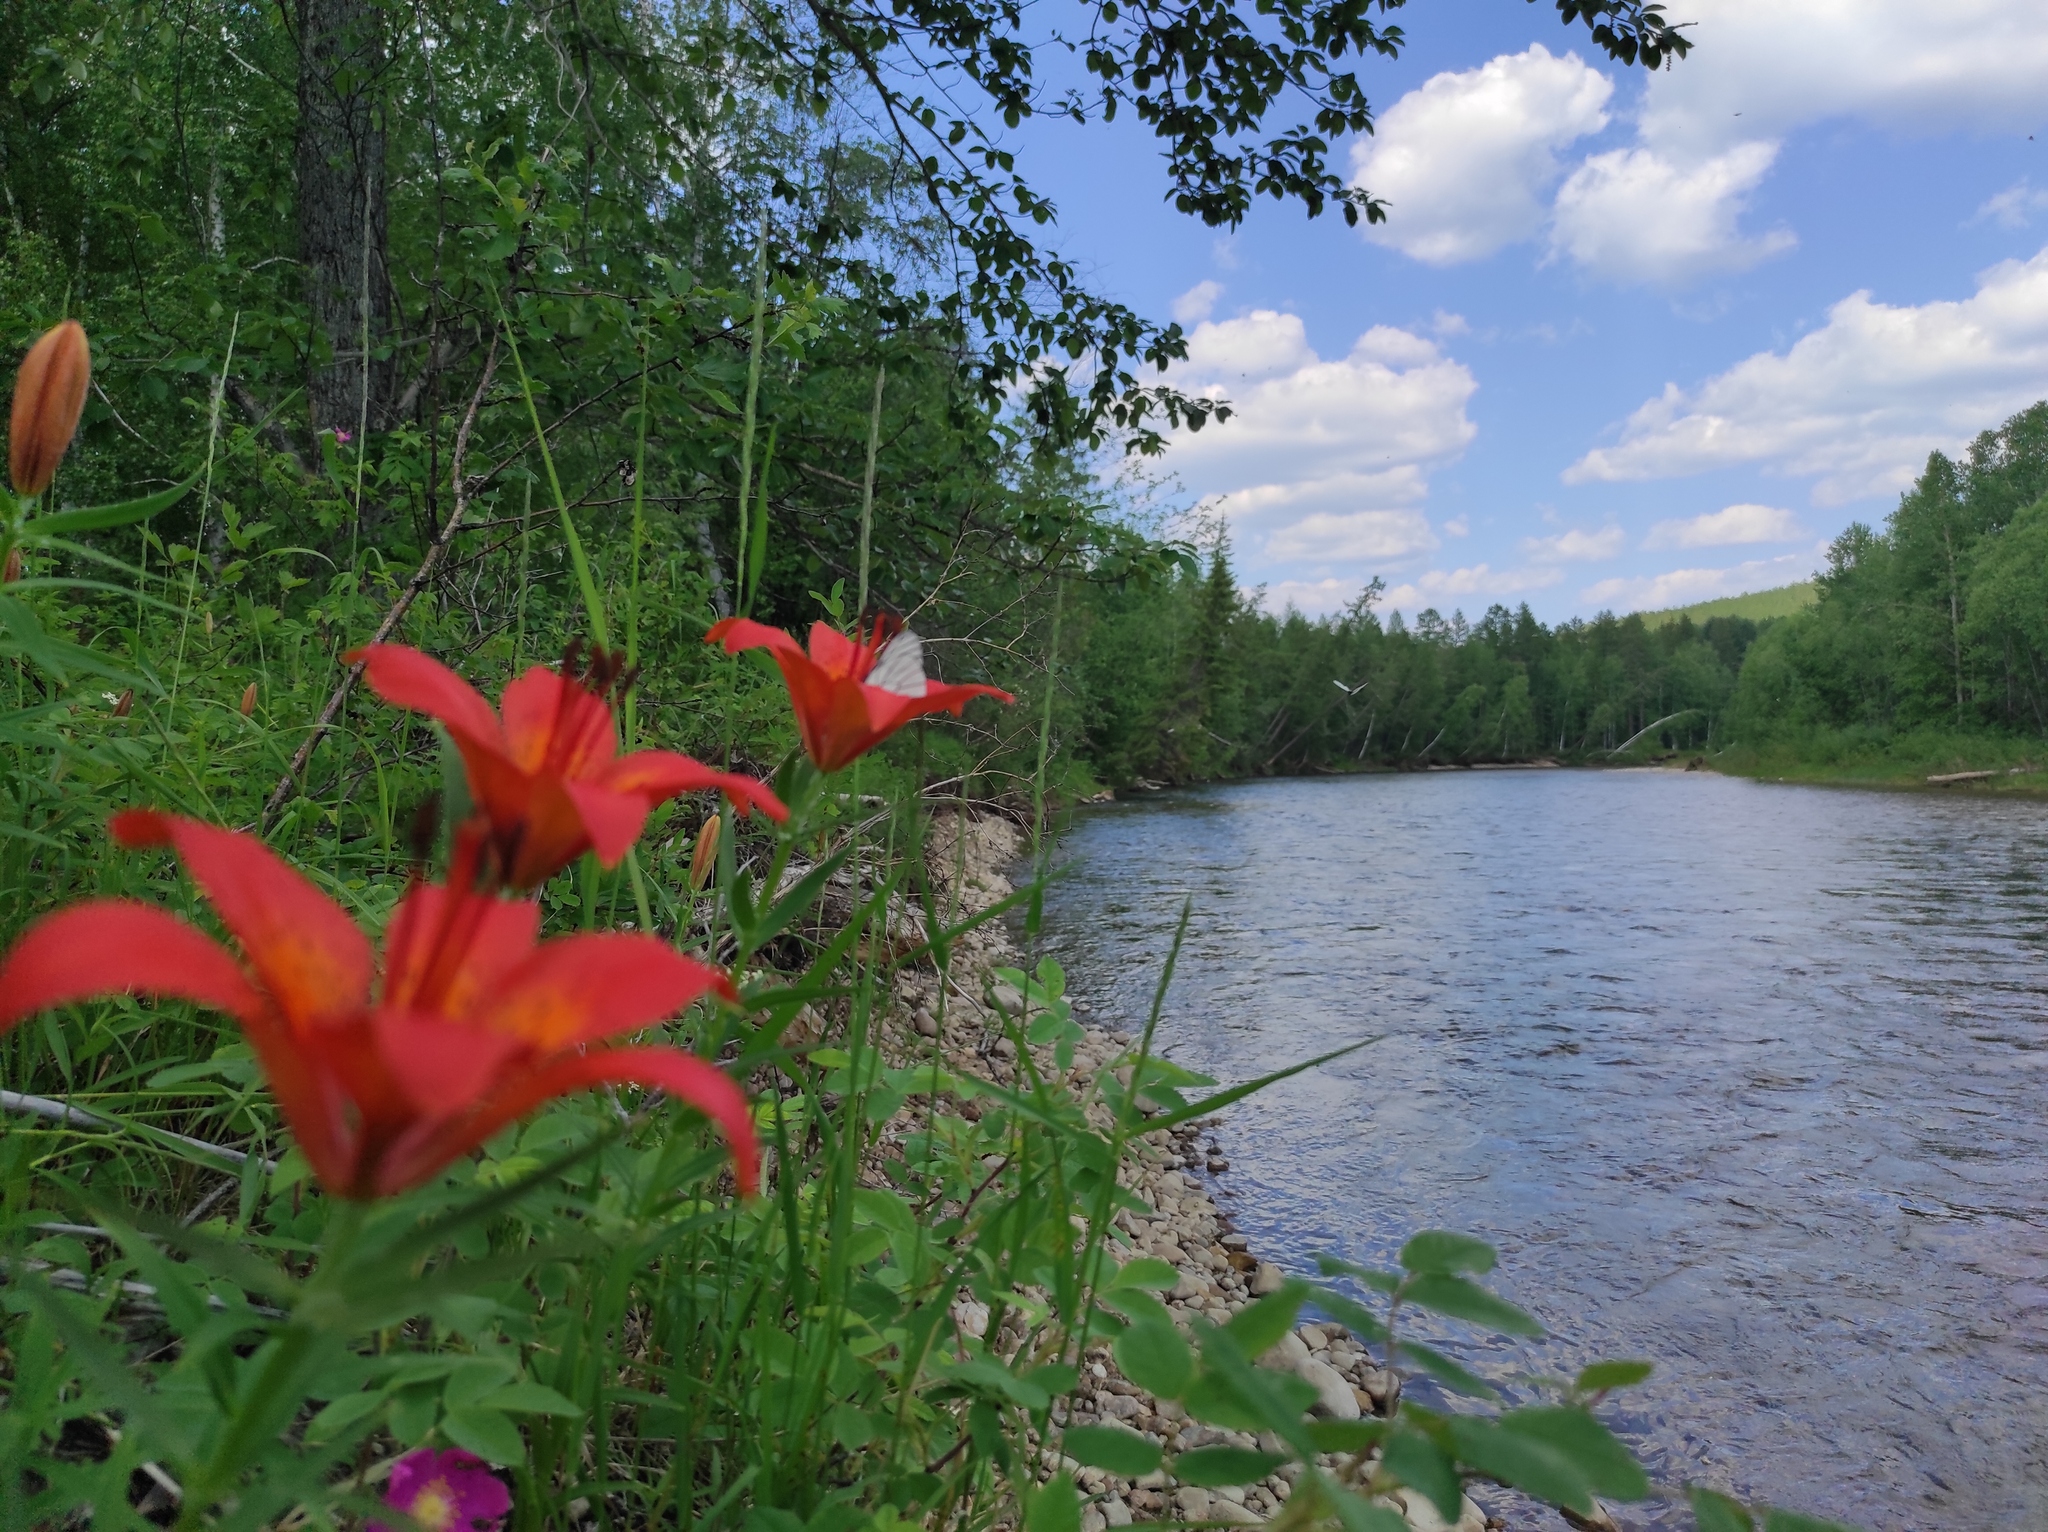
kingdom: Plantae
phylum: Tracheophyta
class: Magnoliopsida
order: Rosales
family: Rosaceae
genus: Rosa
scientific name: Rosa acicularis
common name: Prickly rose
